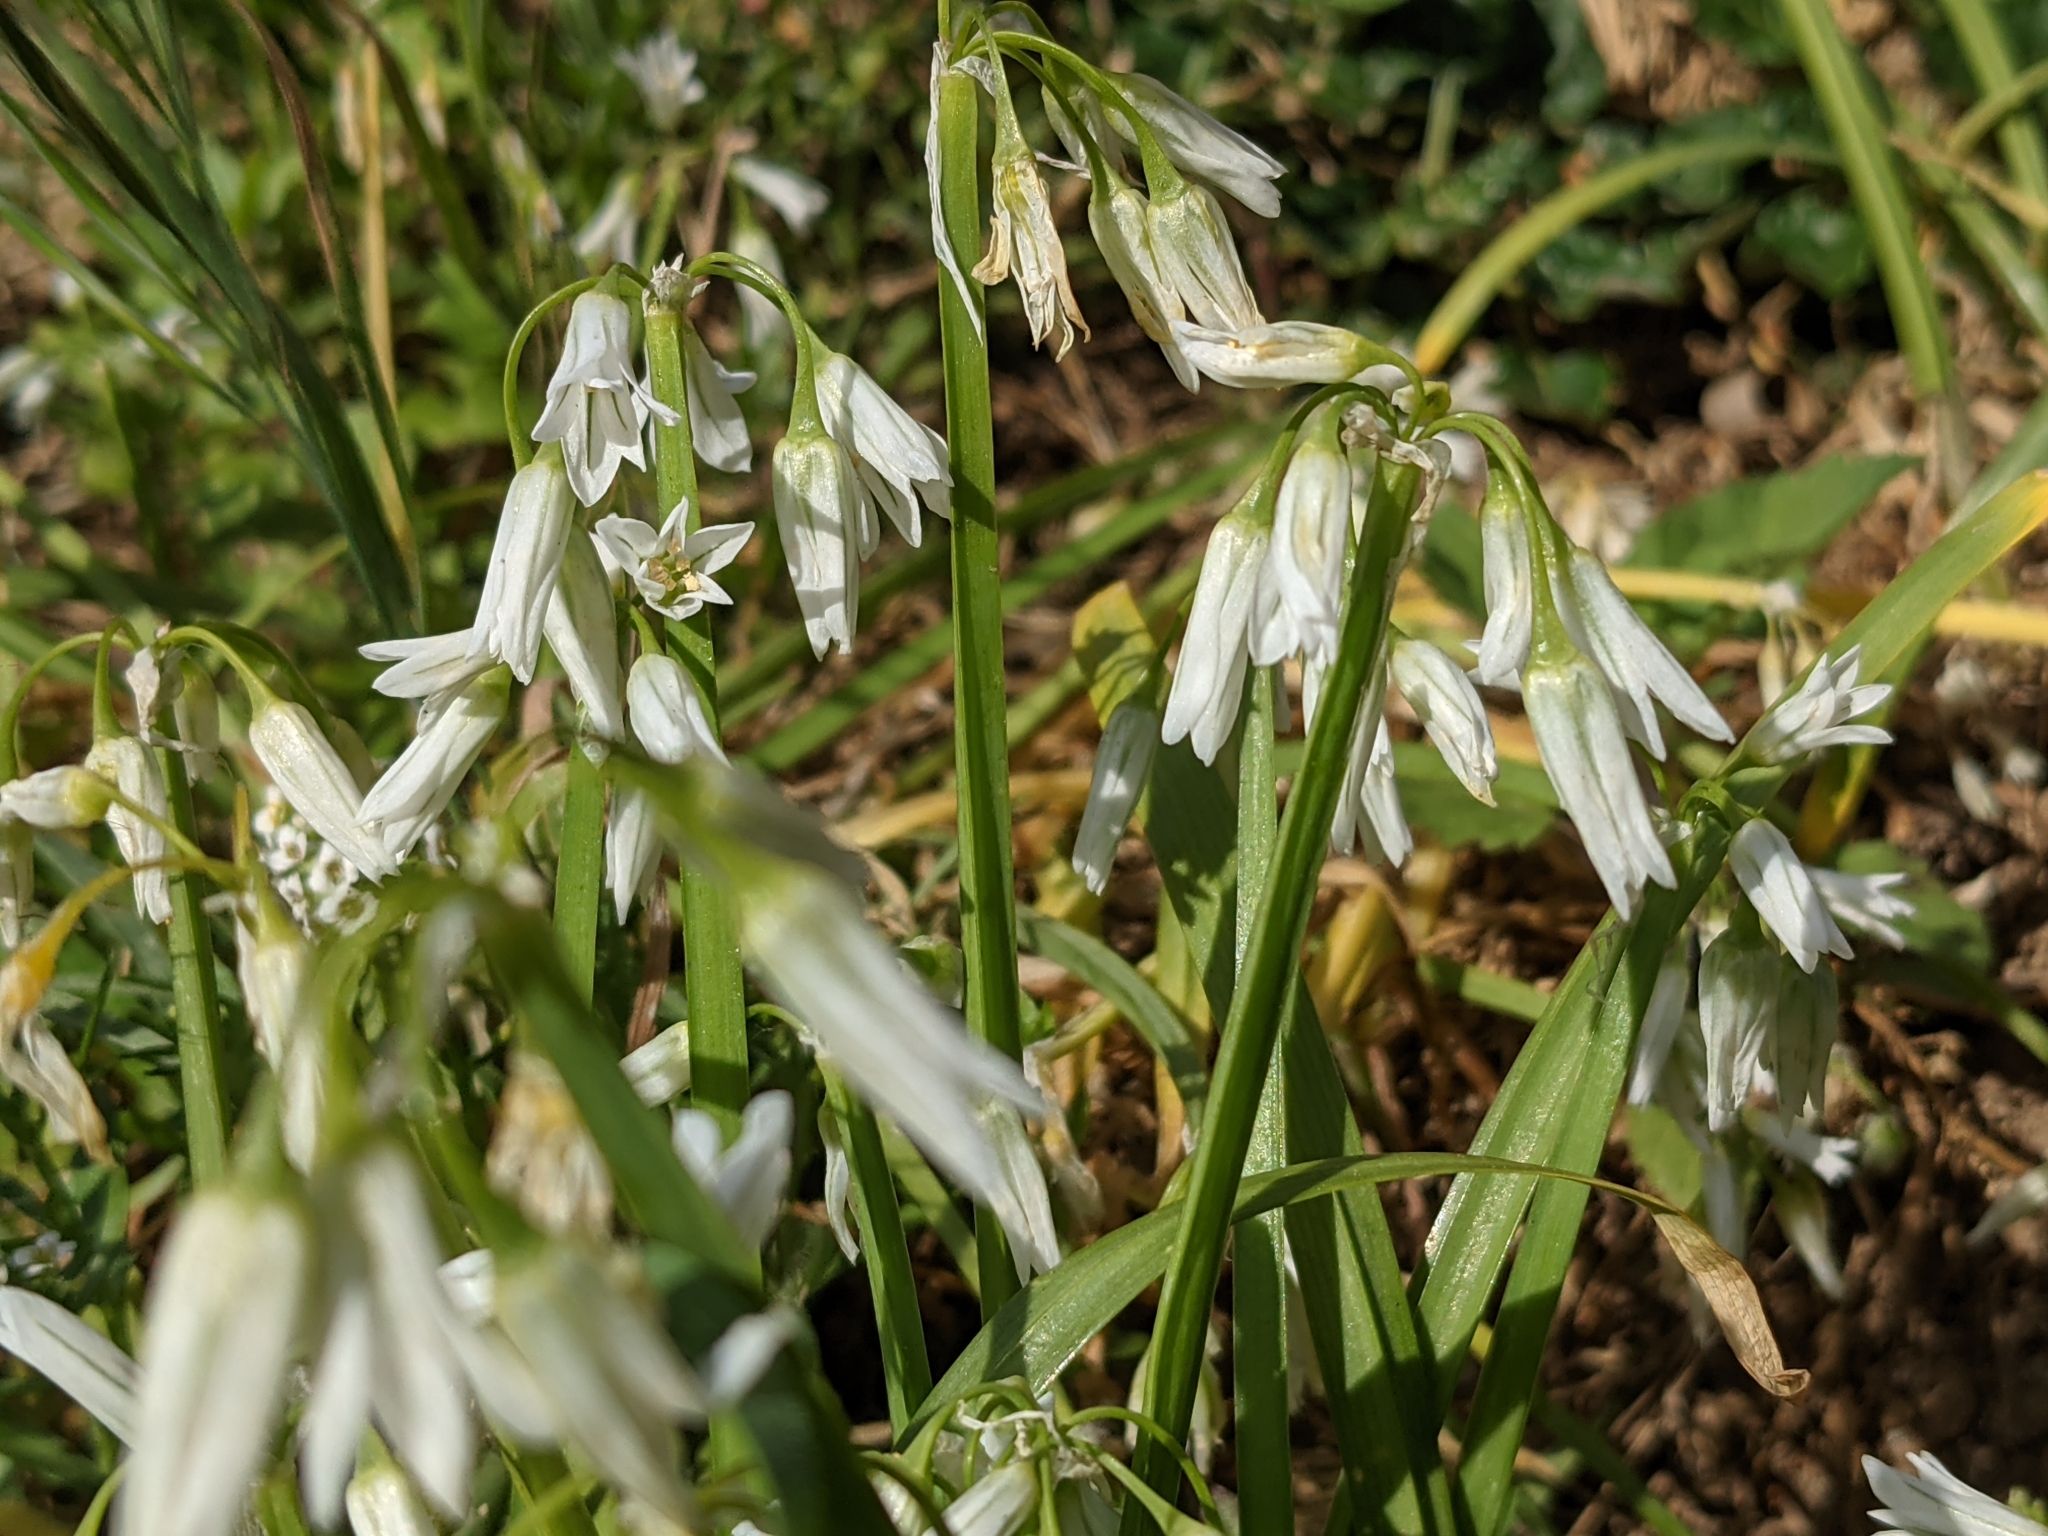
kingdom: Plantae
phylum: Tracheophyta
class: Liliopsida
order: Asparagales
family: Amaryllidaceae
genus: Allium
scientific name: Allium triquetrum
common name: Three-cornered garlic
